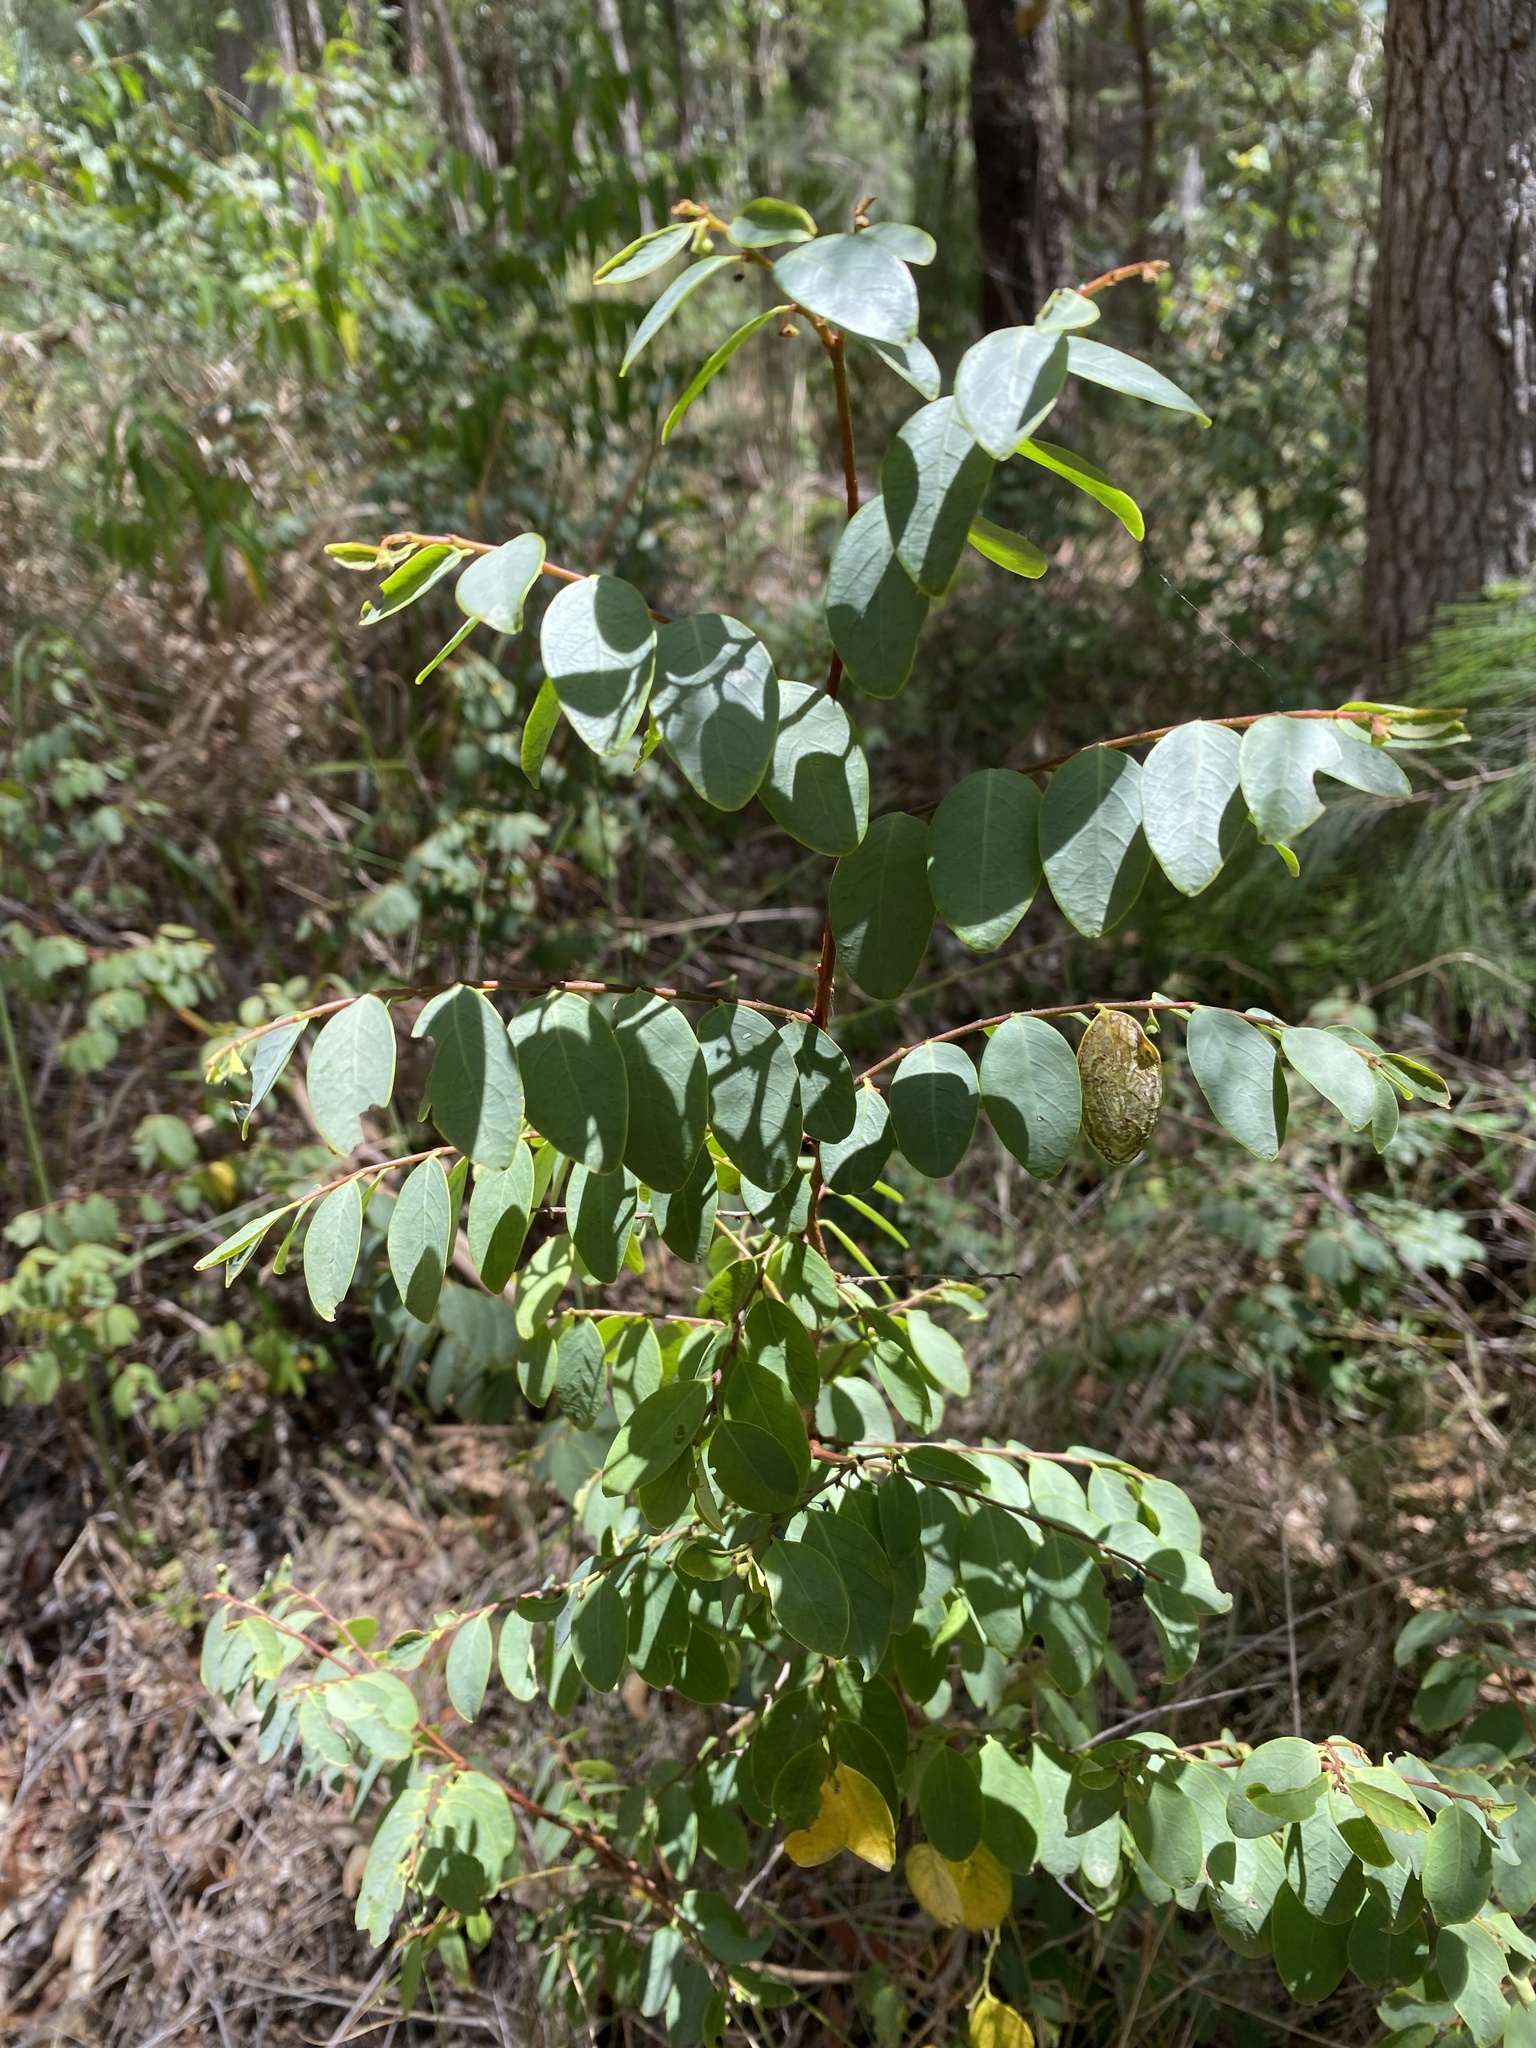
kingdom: Plantae
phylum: Tracheophyta
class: Magnoliopsida
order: Malpighiales
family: Phyllanthaceae
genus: Breynia
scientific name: Breynia oblongifolia
